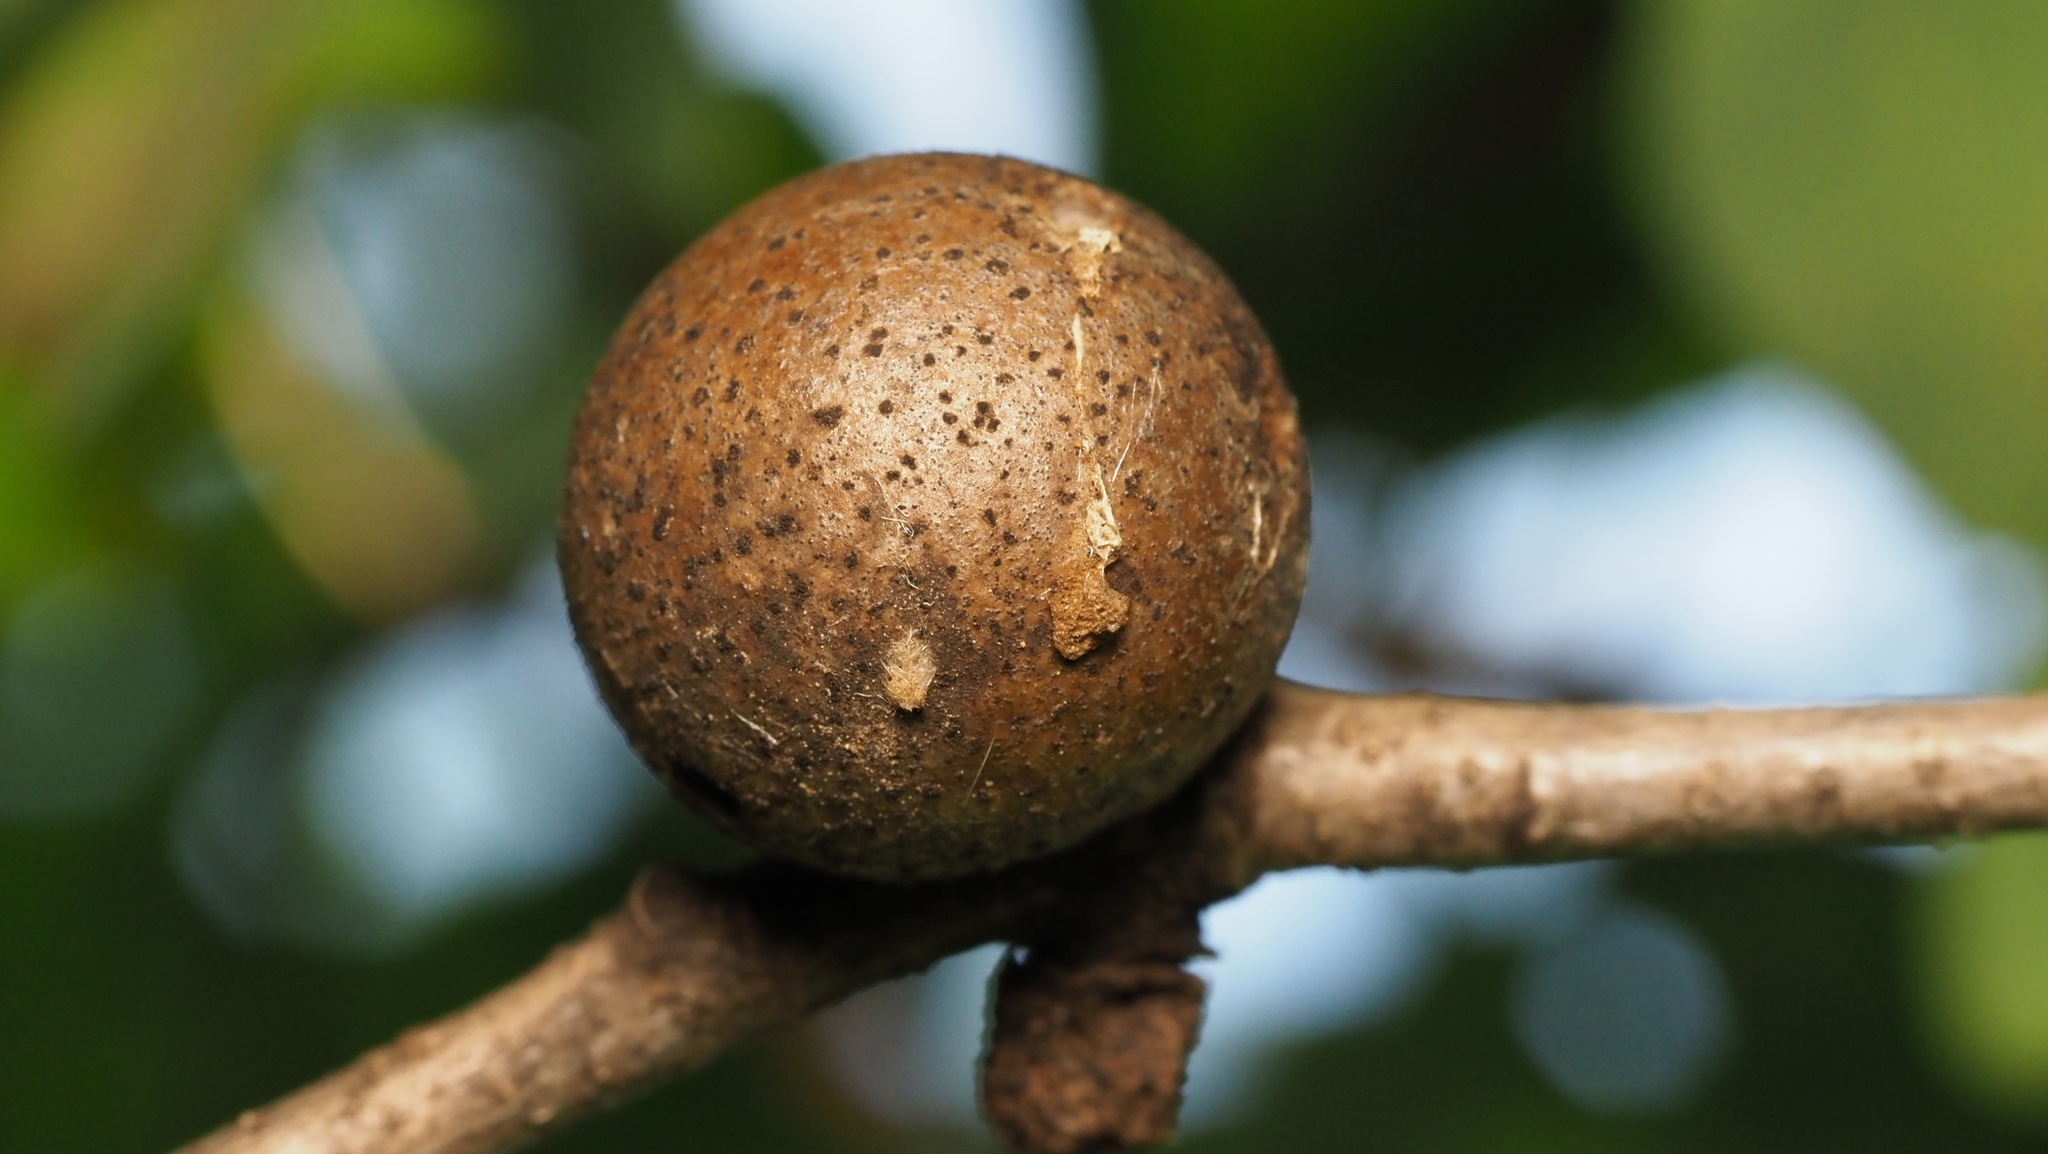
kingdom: Animalia
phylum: Arthropoda
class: Insecta
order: Hymenoptera
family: Cynipidae
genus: Disholcaspis
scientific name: Disholcaspis quercusglobulus
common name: Round bullet gall wasp
